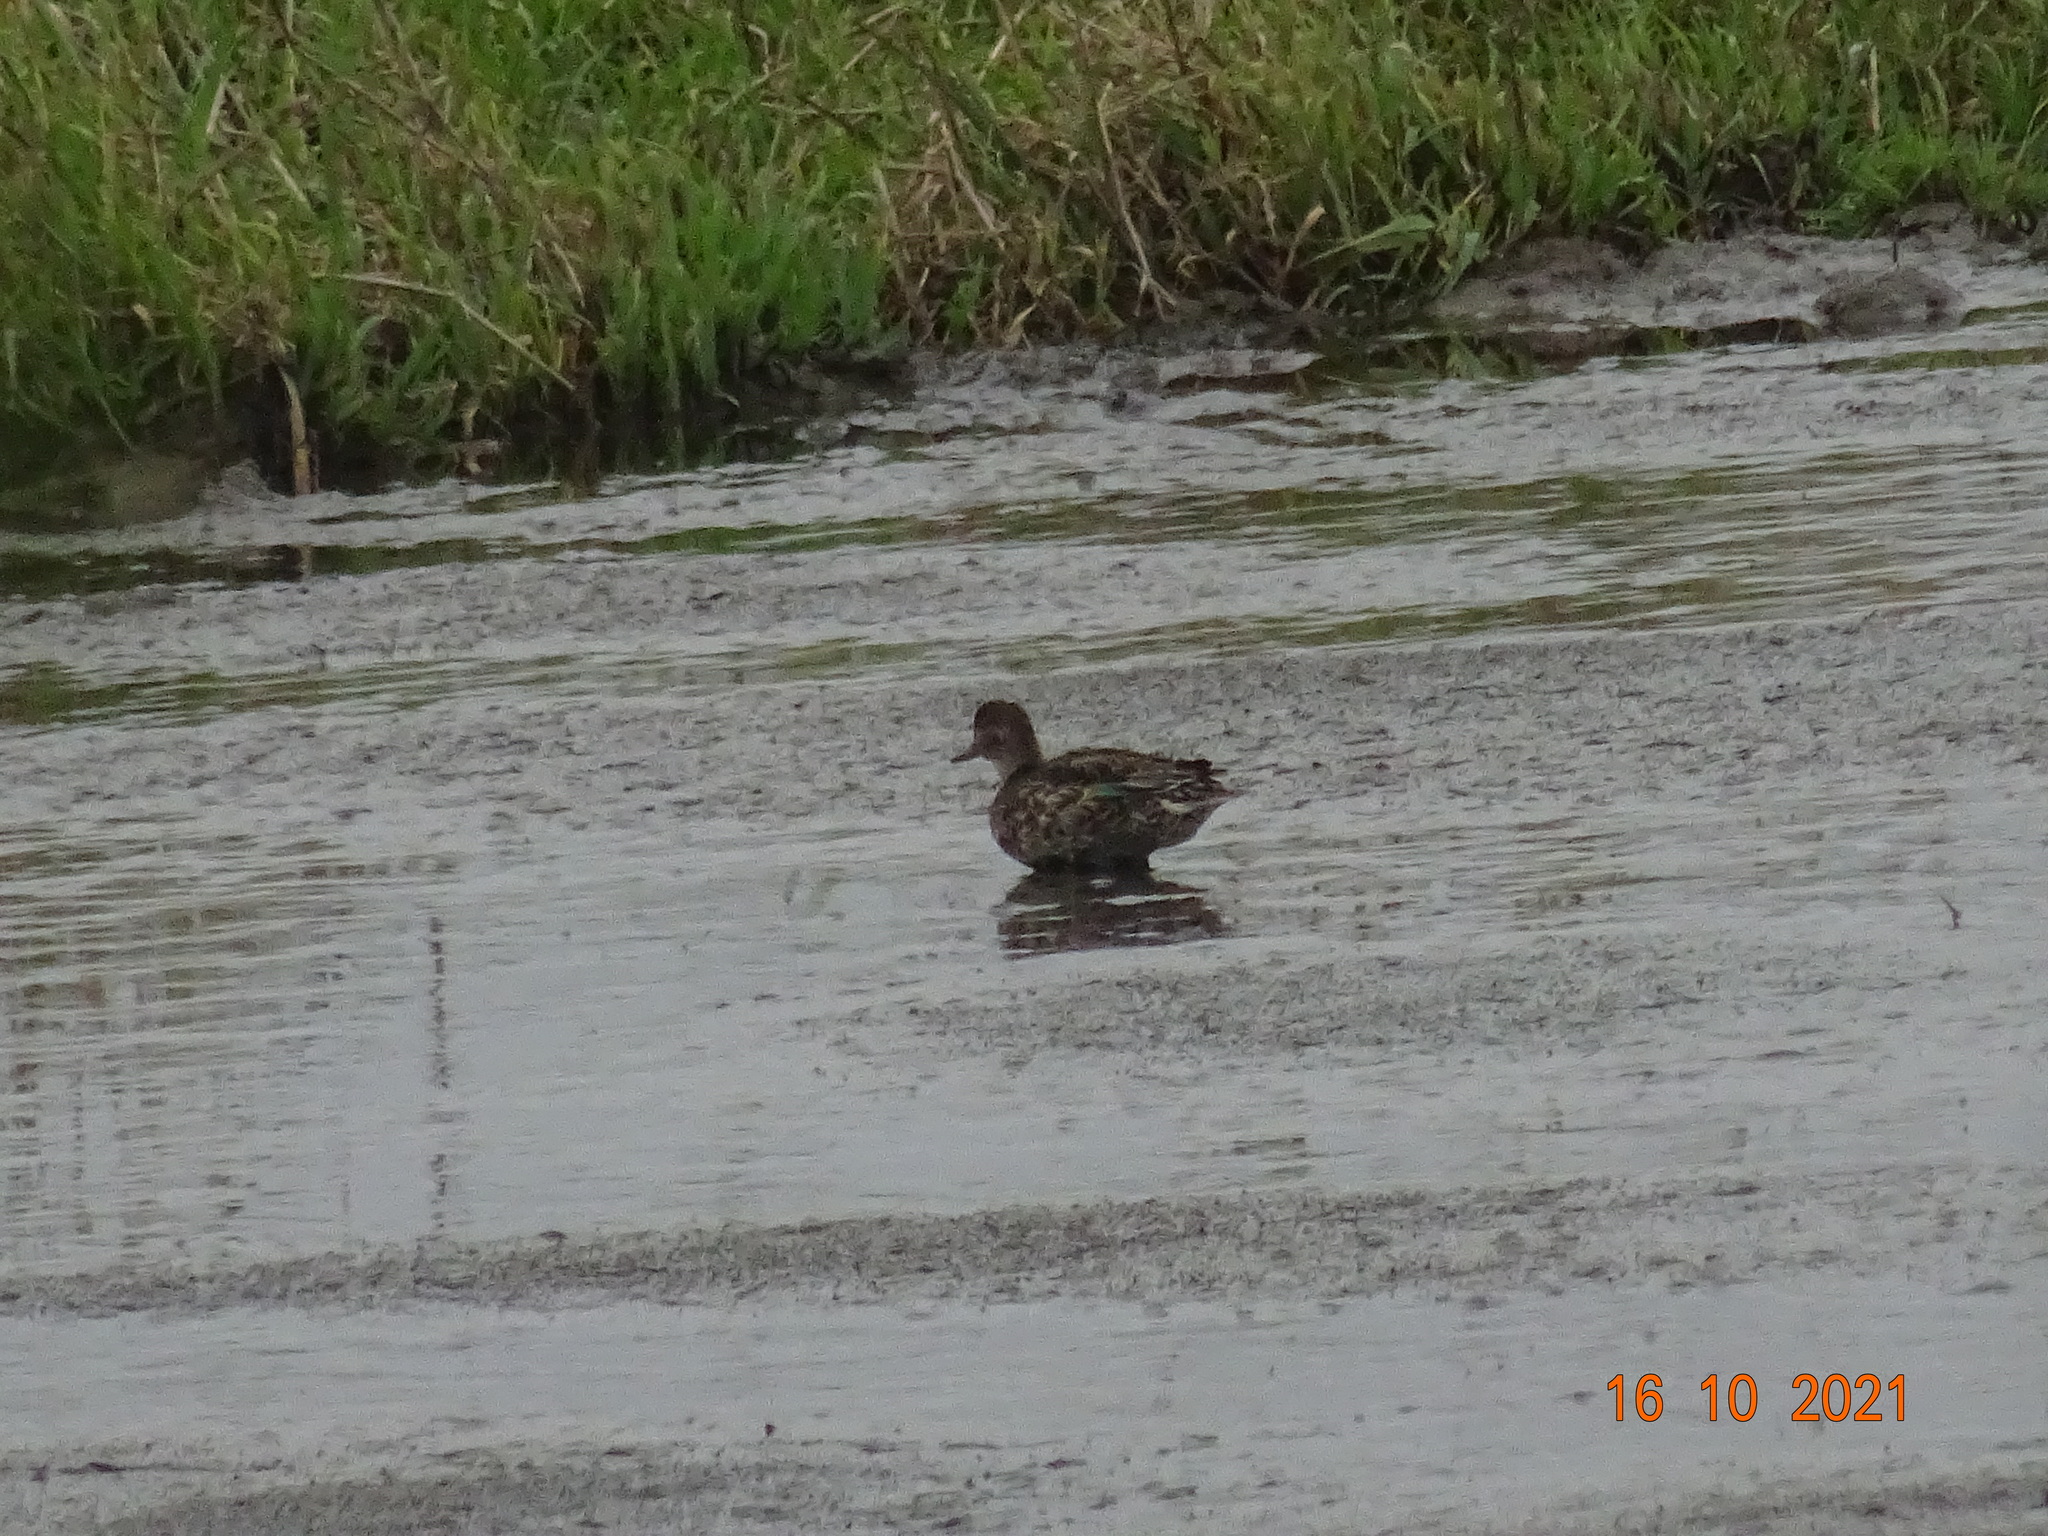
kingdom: Animalia
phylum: Chordata
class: Aves
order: Anseriformes
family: Anatidae
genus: Anas
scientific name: Anas crecca
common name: Eurasian teal
